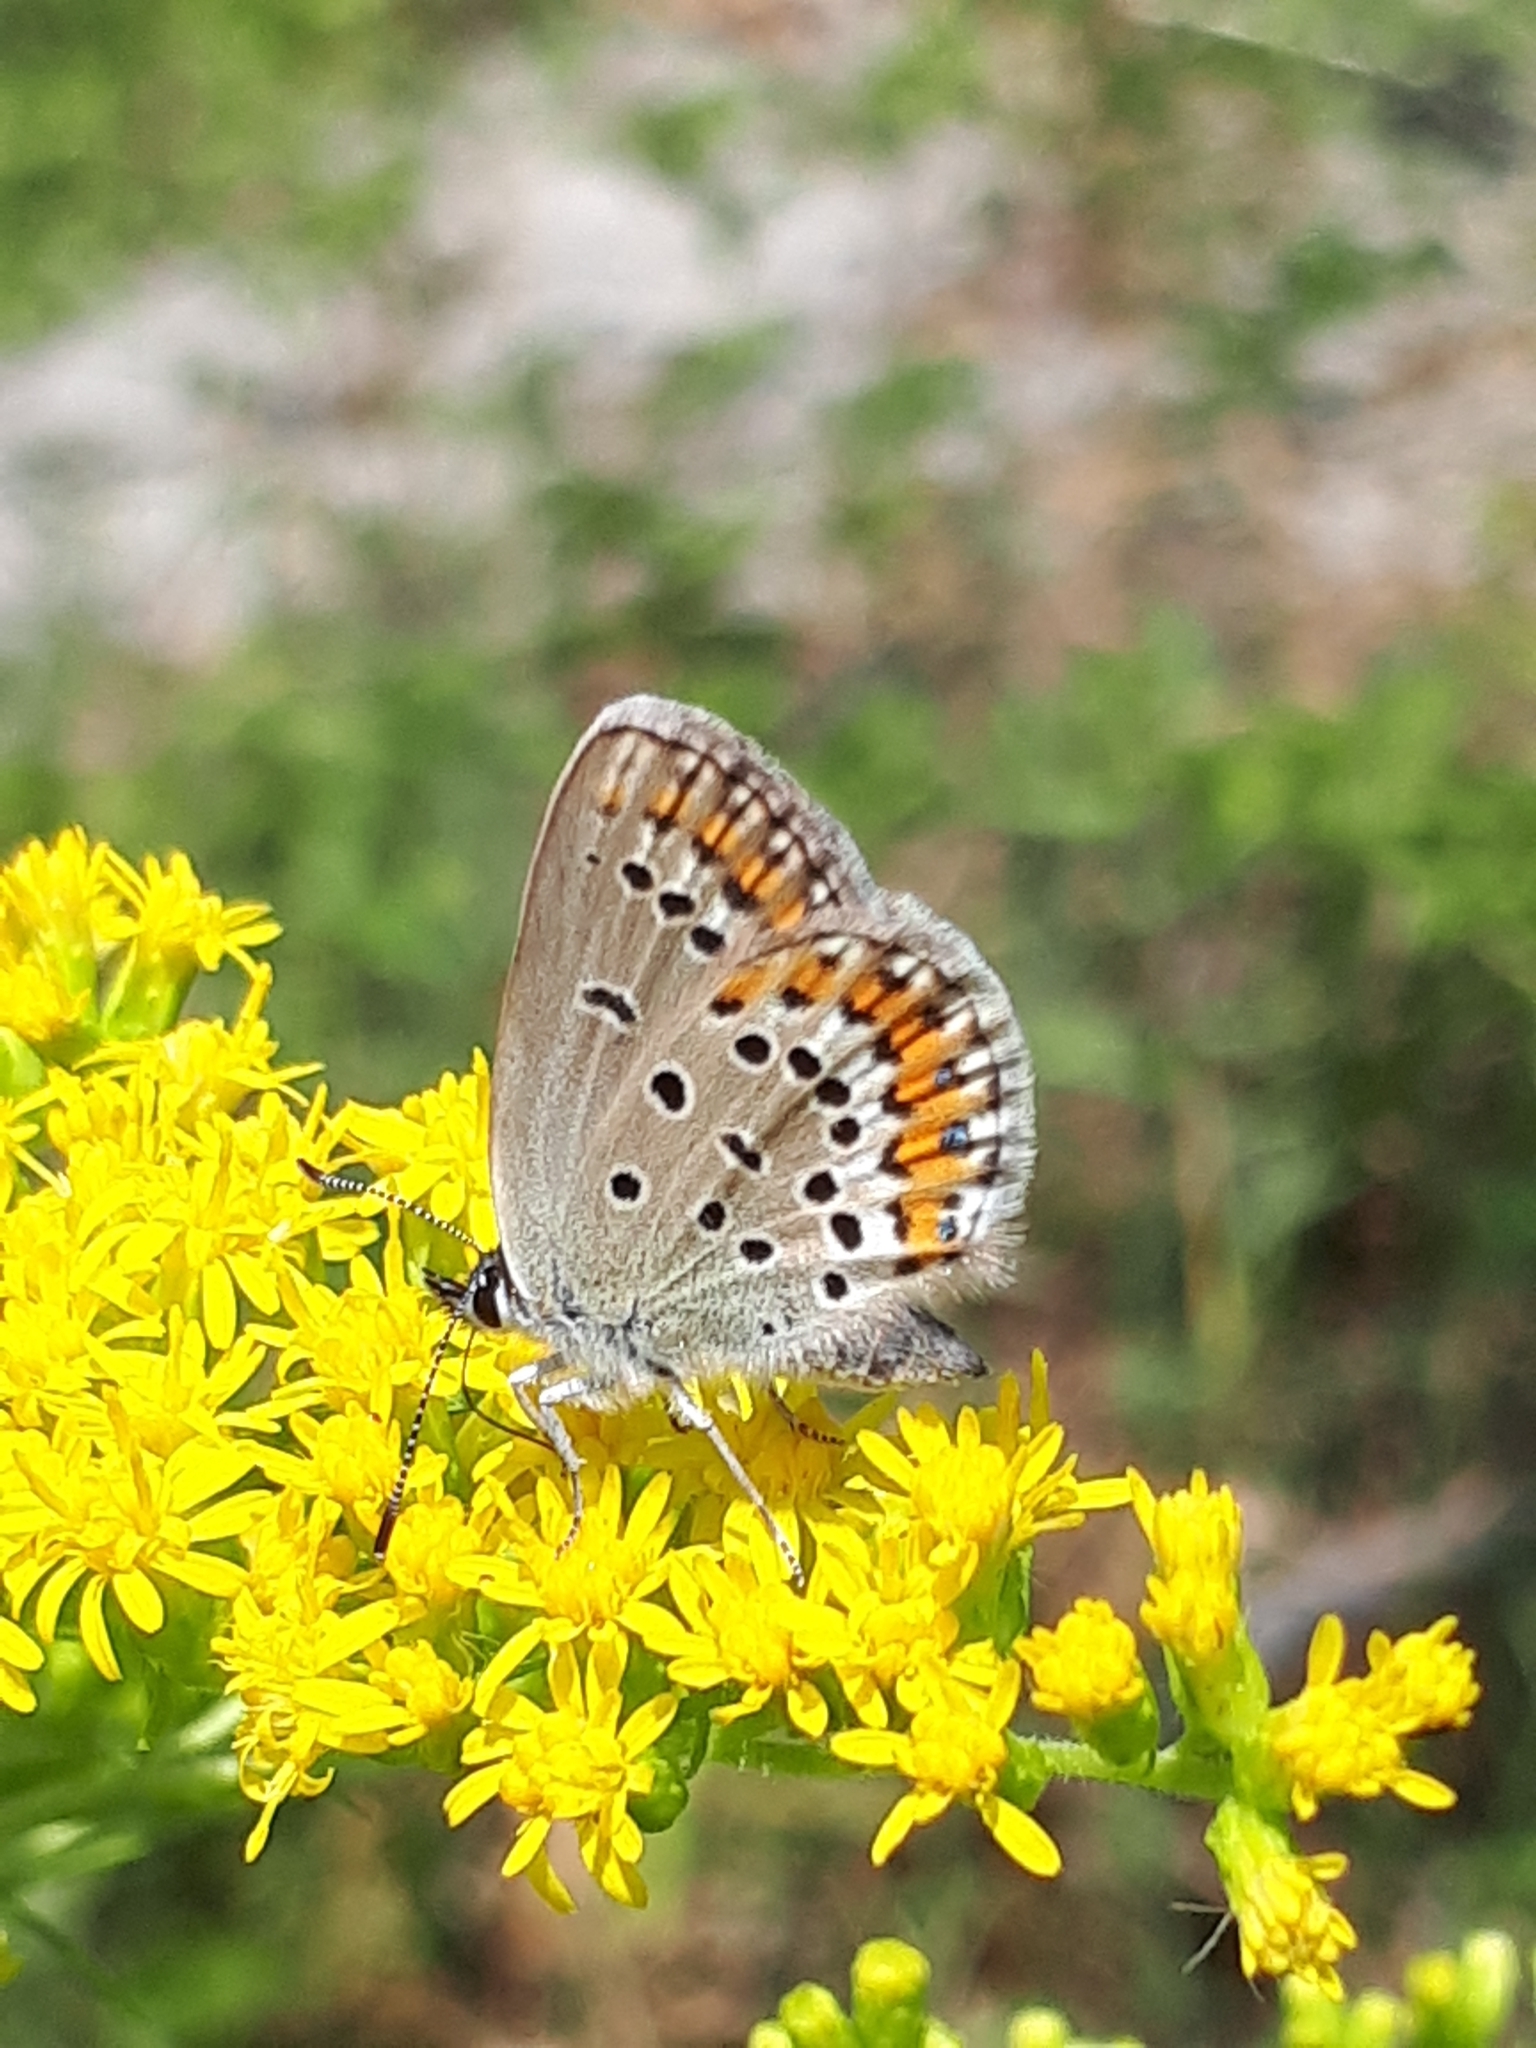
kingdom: Animalia
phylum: Arthropoda
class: Insecta
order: Lepidoptera
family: Lycaenidae
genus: Lycaeides
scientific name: Lycaeides idas
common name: Northern blue
